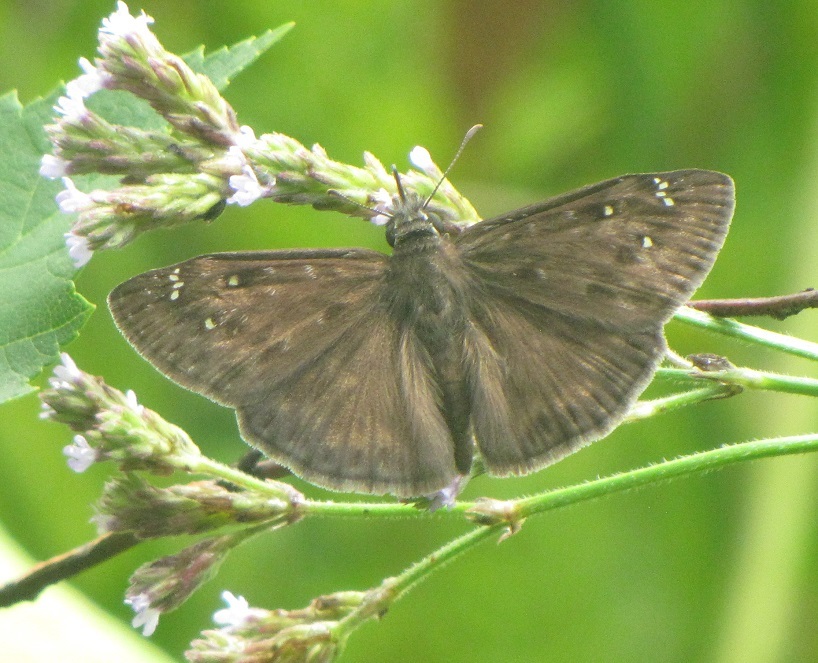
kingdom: Animalia
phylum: Arthropoda
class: Insecta
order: Lepidoptera
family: Hesperiidae
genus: Erynnis
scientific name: Erynnis horatius
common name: Horace's duskywing
